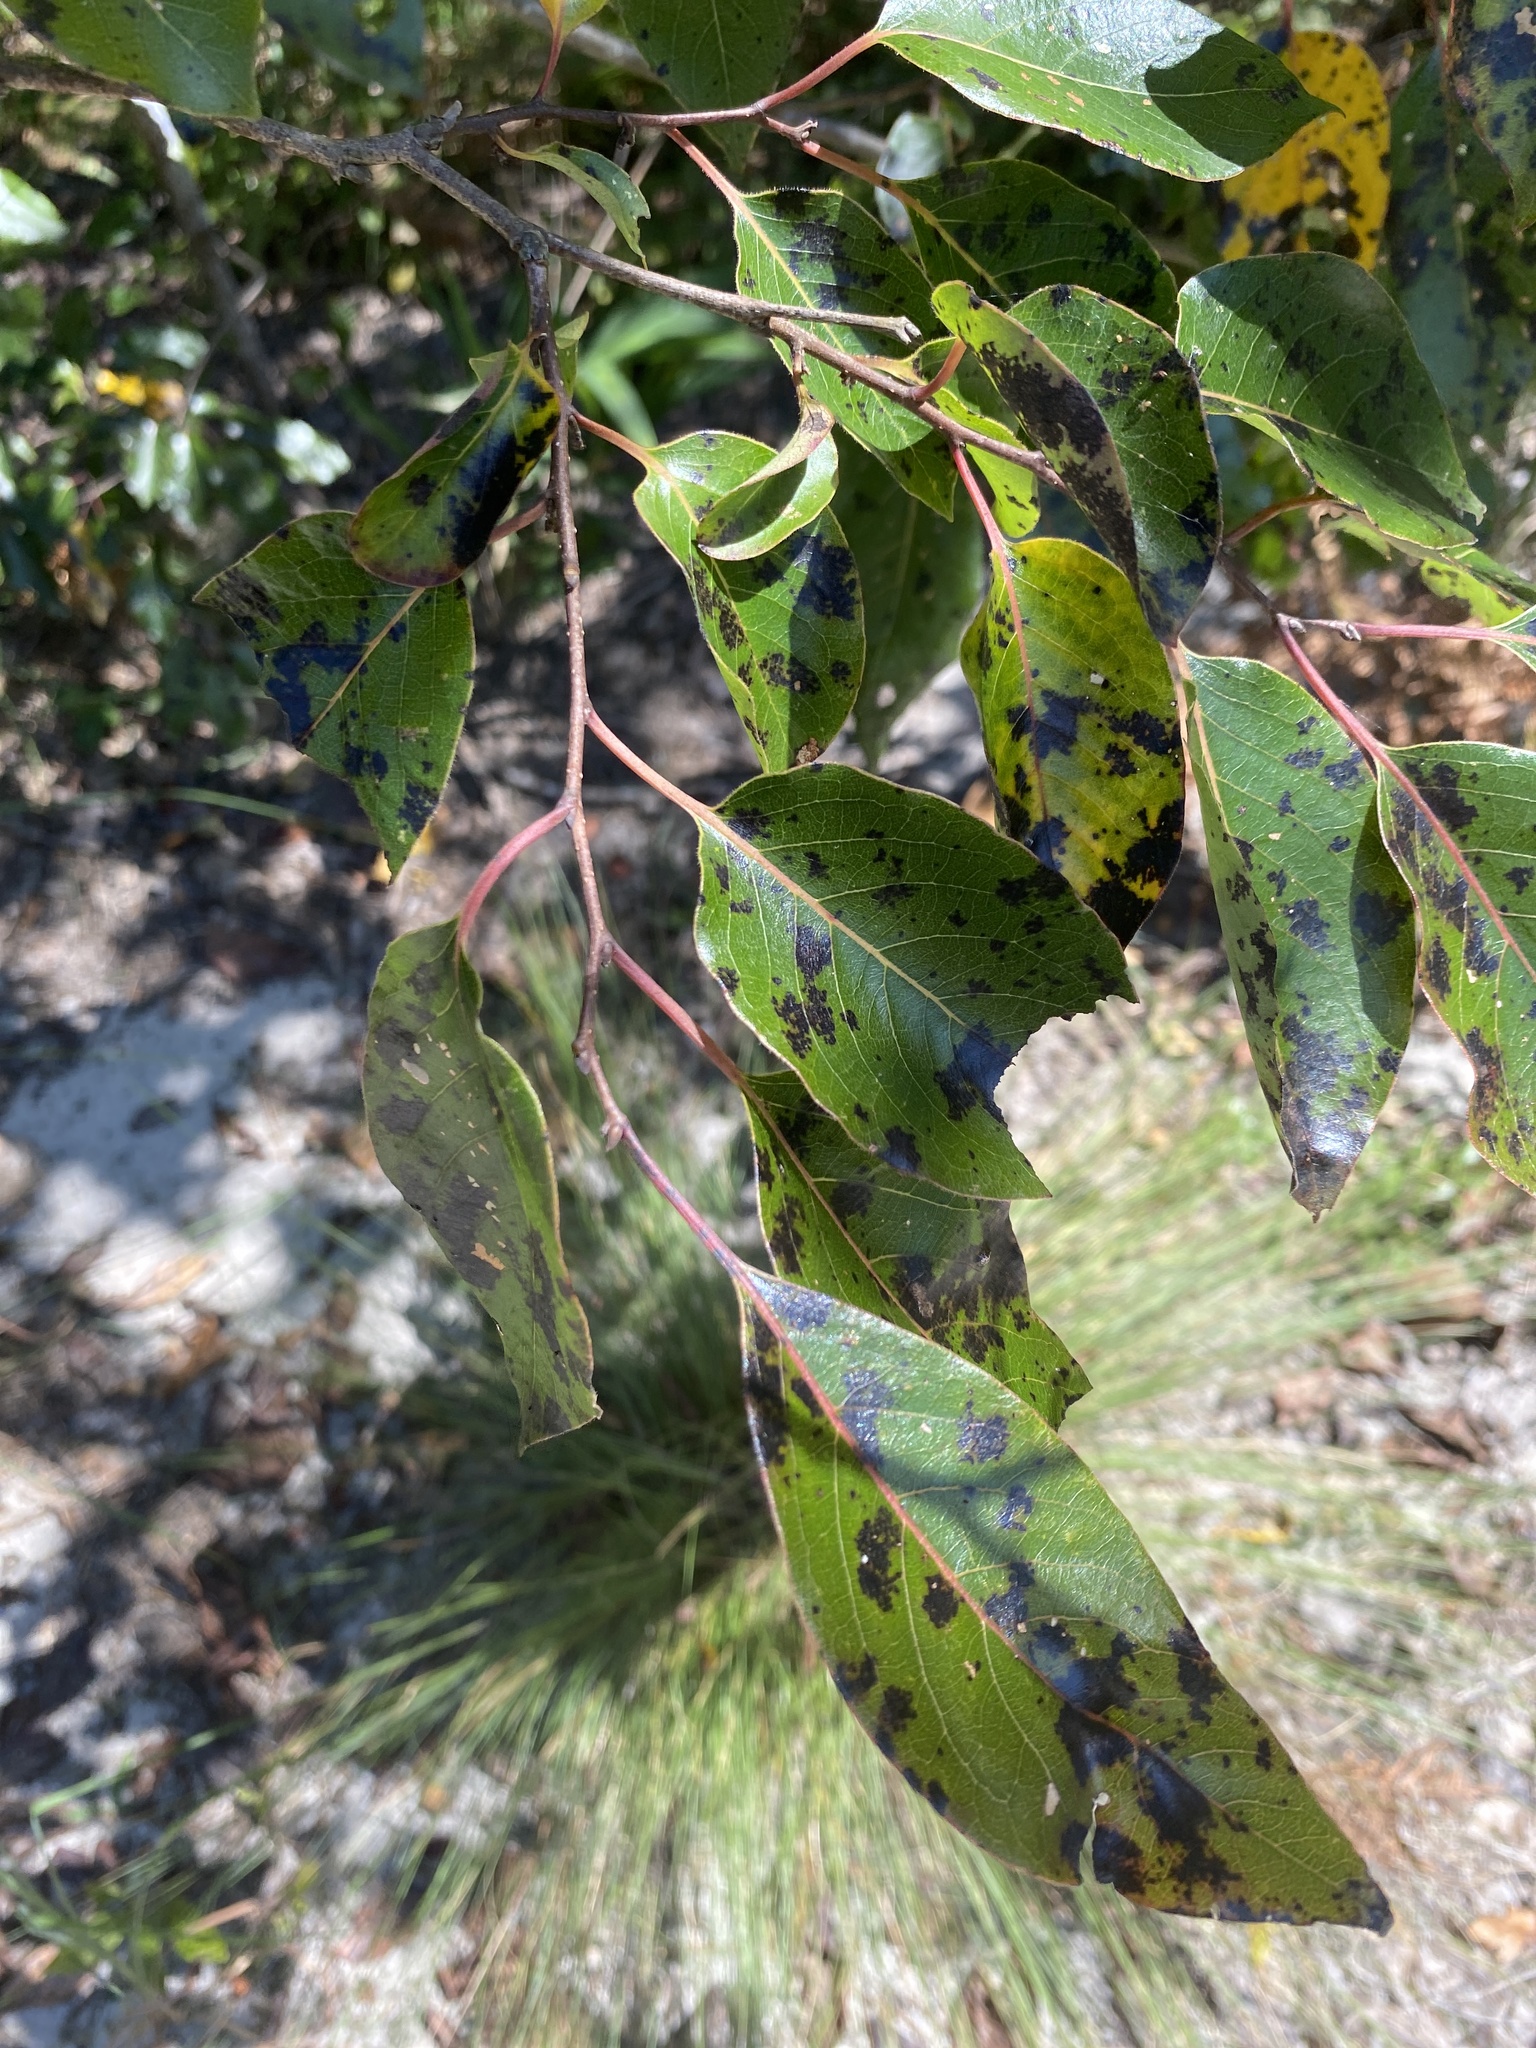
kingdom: Plantae
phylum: Tracheophyta
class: Magnoliopsida
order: Ericales
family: Ebenaceae
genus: Diospyros
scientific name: Diospyros virginiana
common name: Persimmon
